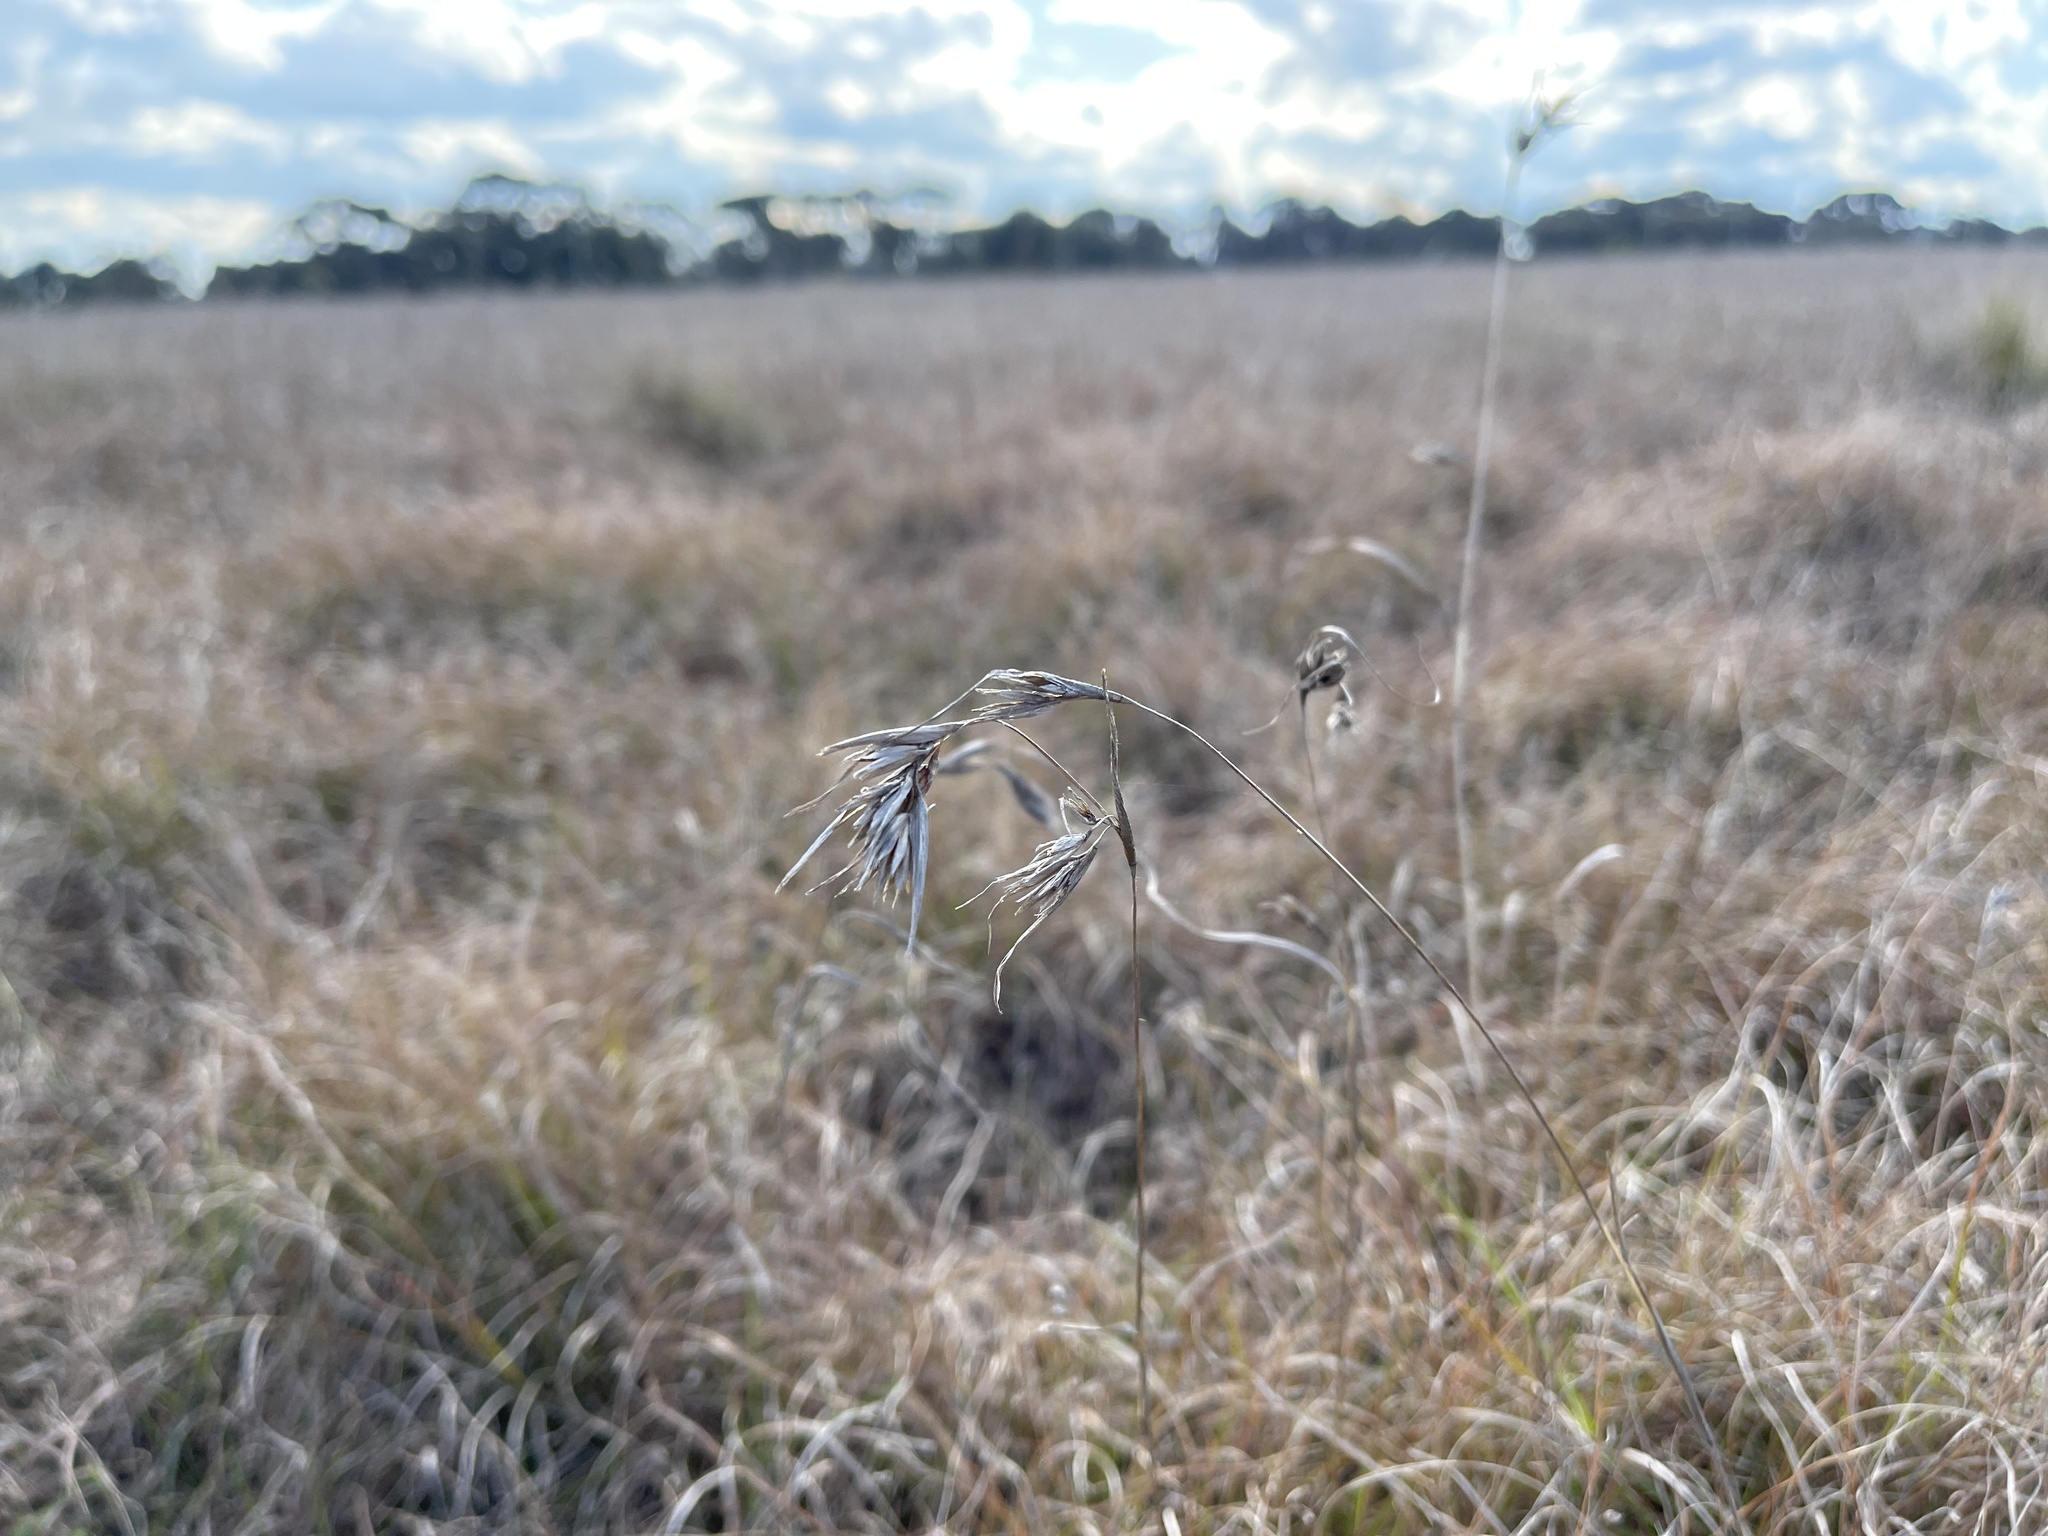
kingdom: Plantae
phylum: Tracheophyta
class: Liliopsida
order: Poales
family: Poaceae
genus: Themeda
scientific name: Themeda triandra
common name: Kangaroo grass
